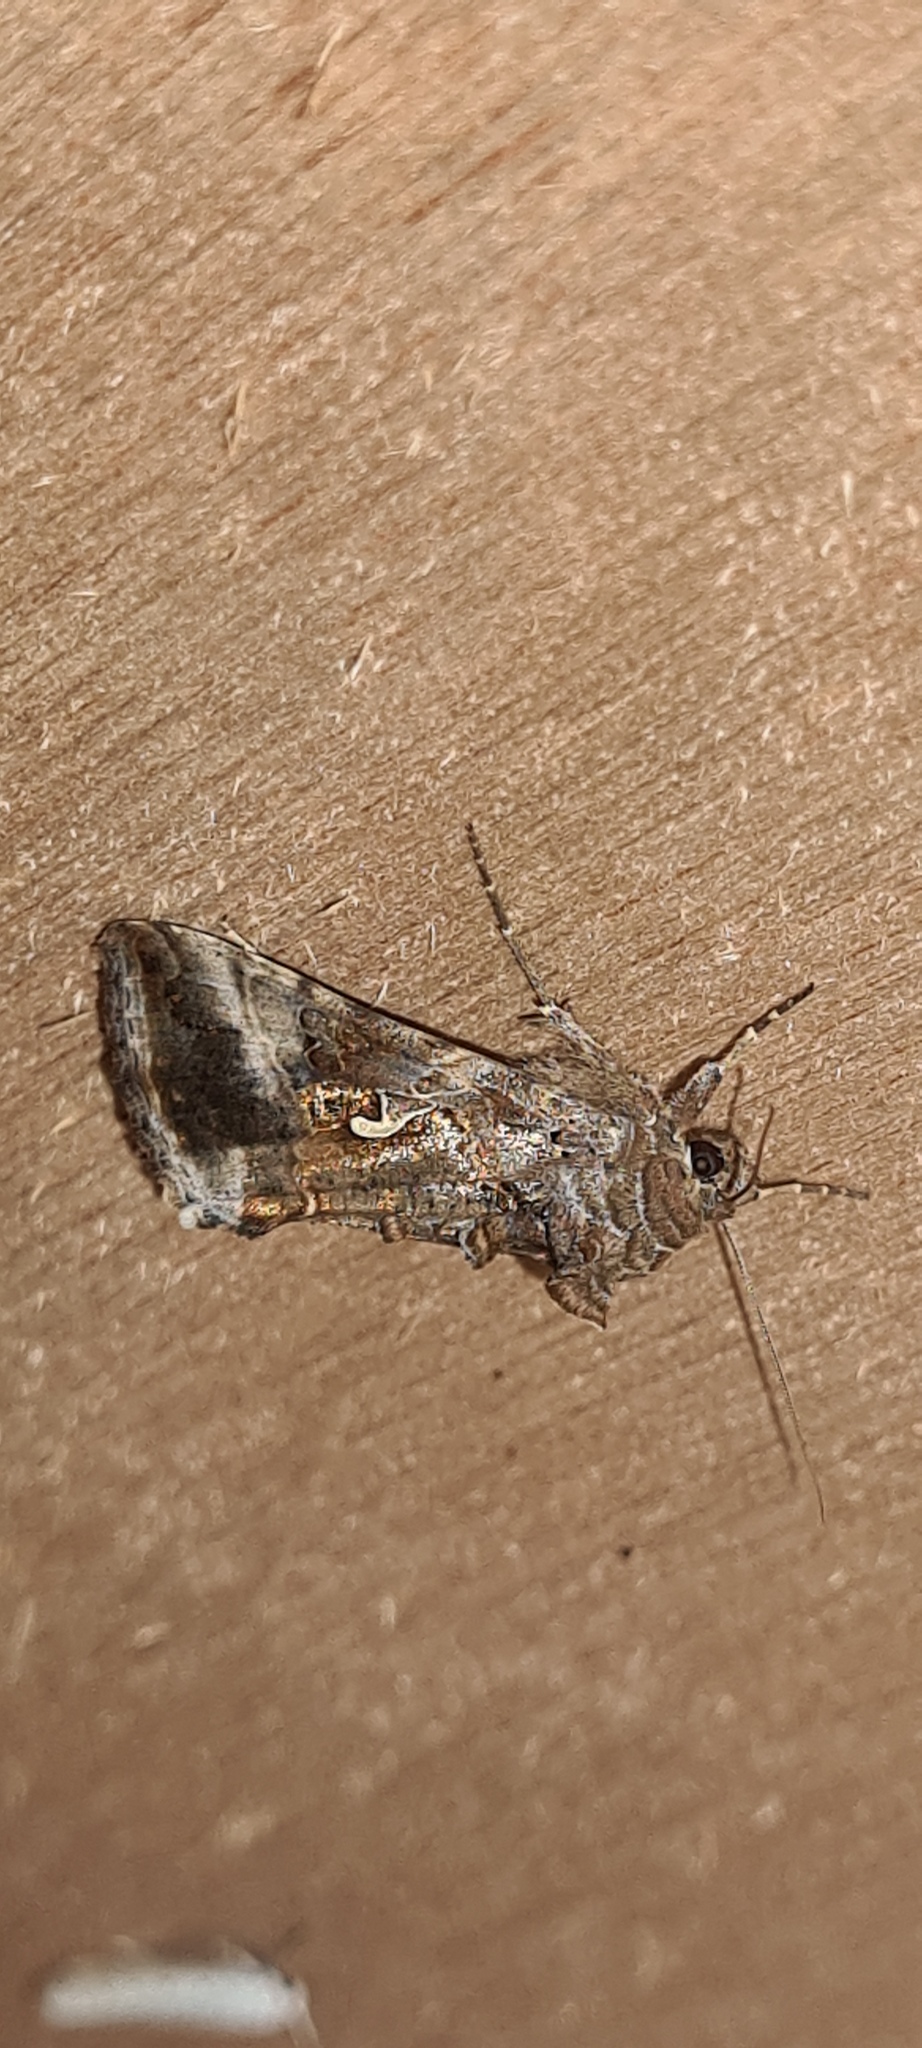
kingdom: Animalia
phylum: Arthropoda
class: Insecta
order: Lepidoptera
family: Noctuidae
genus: Autographa
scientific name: Autographa gamma
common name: Silver y
